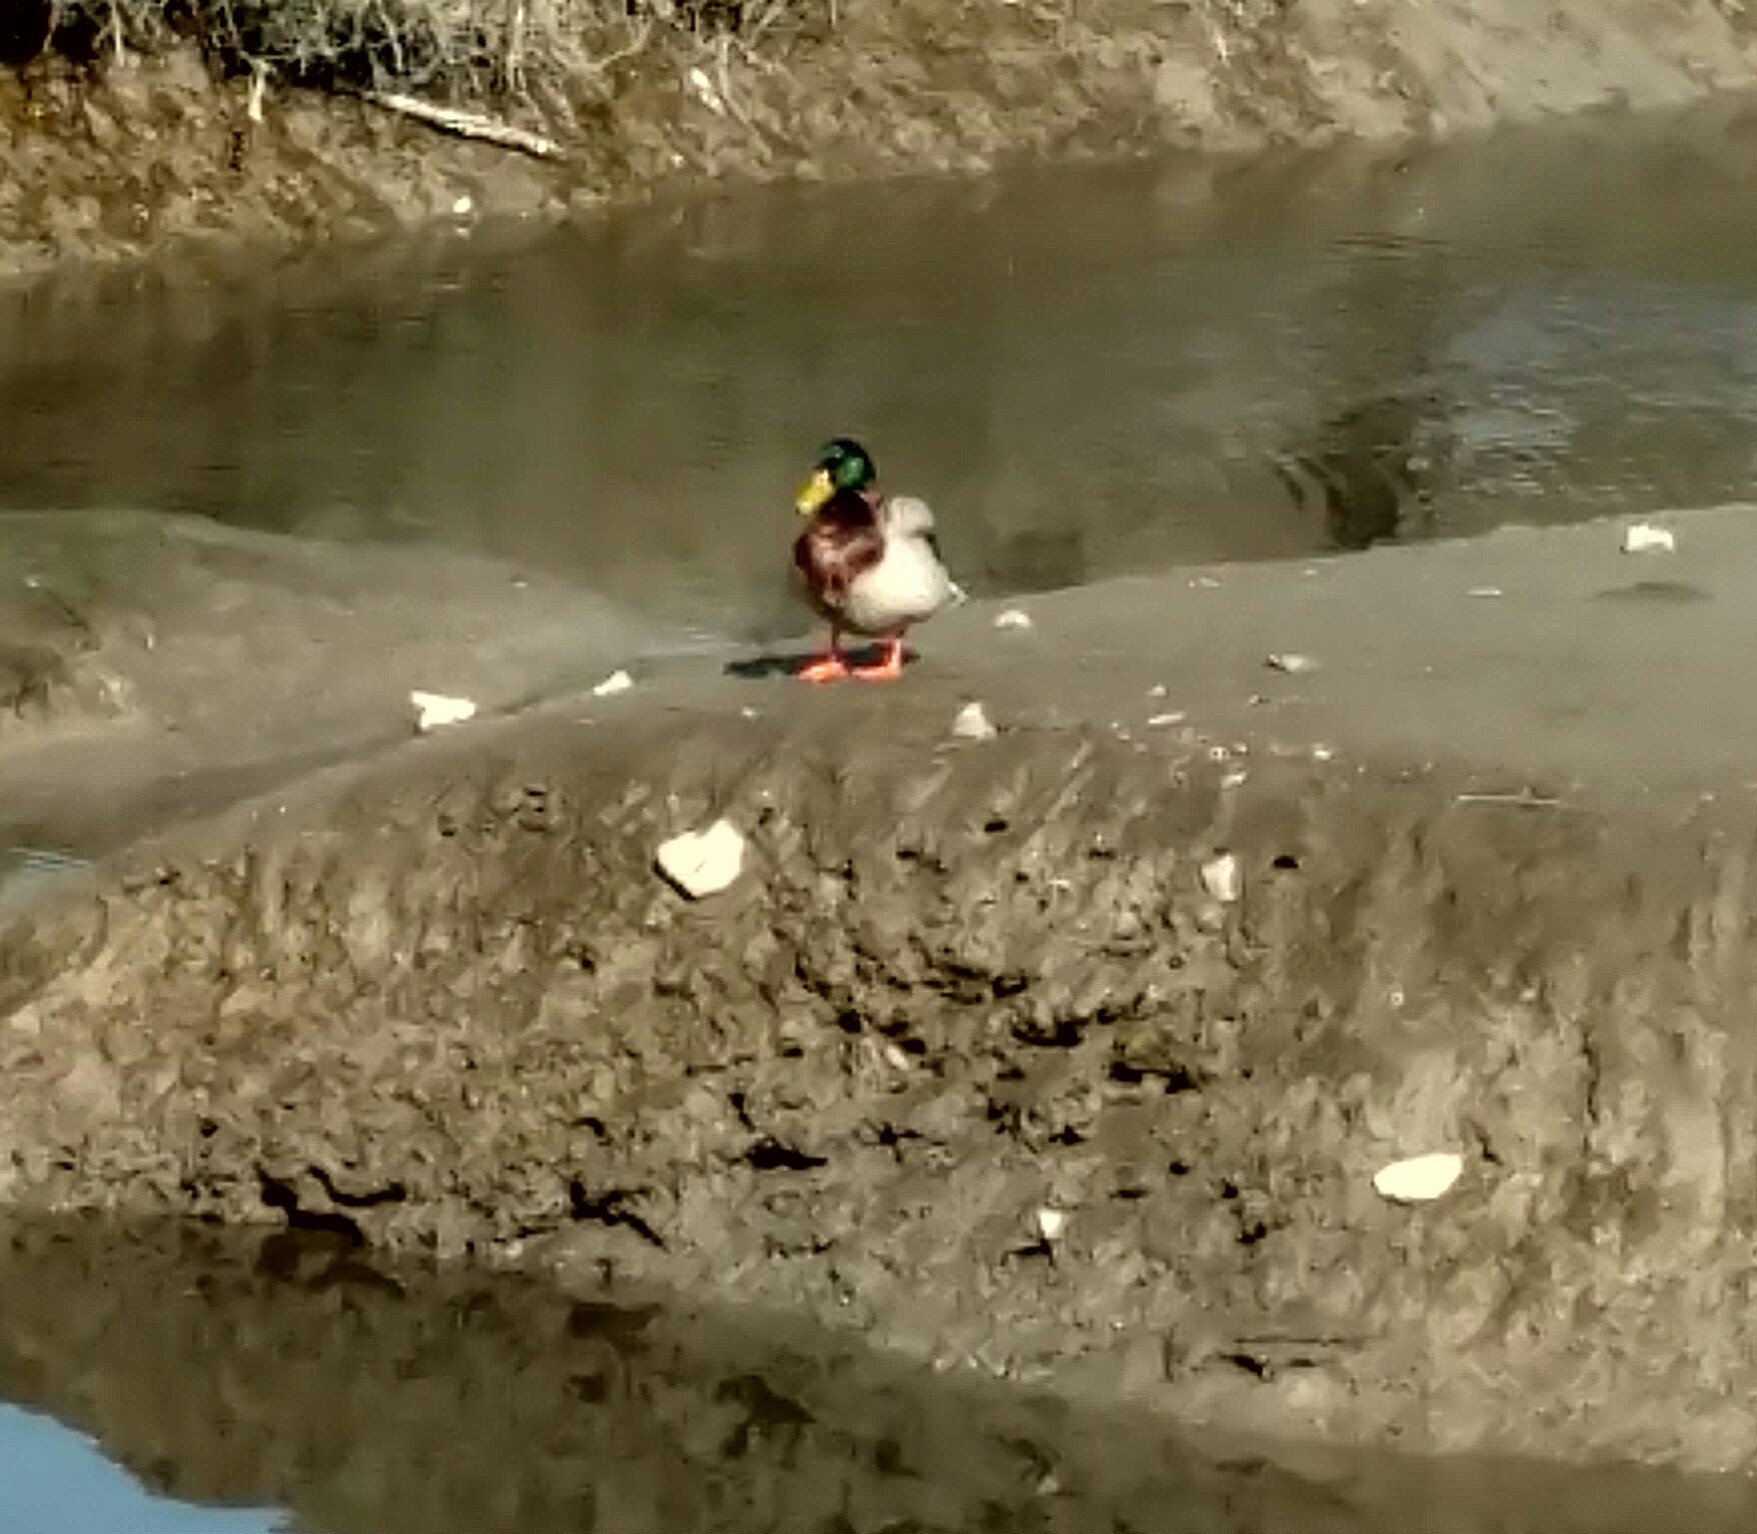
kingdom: Animalia
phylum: Chordata
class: Aves
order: Anseriformes
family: Anatidae
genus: Anas
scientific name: Anas platyrhynchos
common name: Mallard
